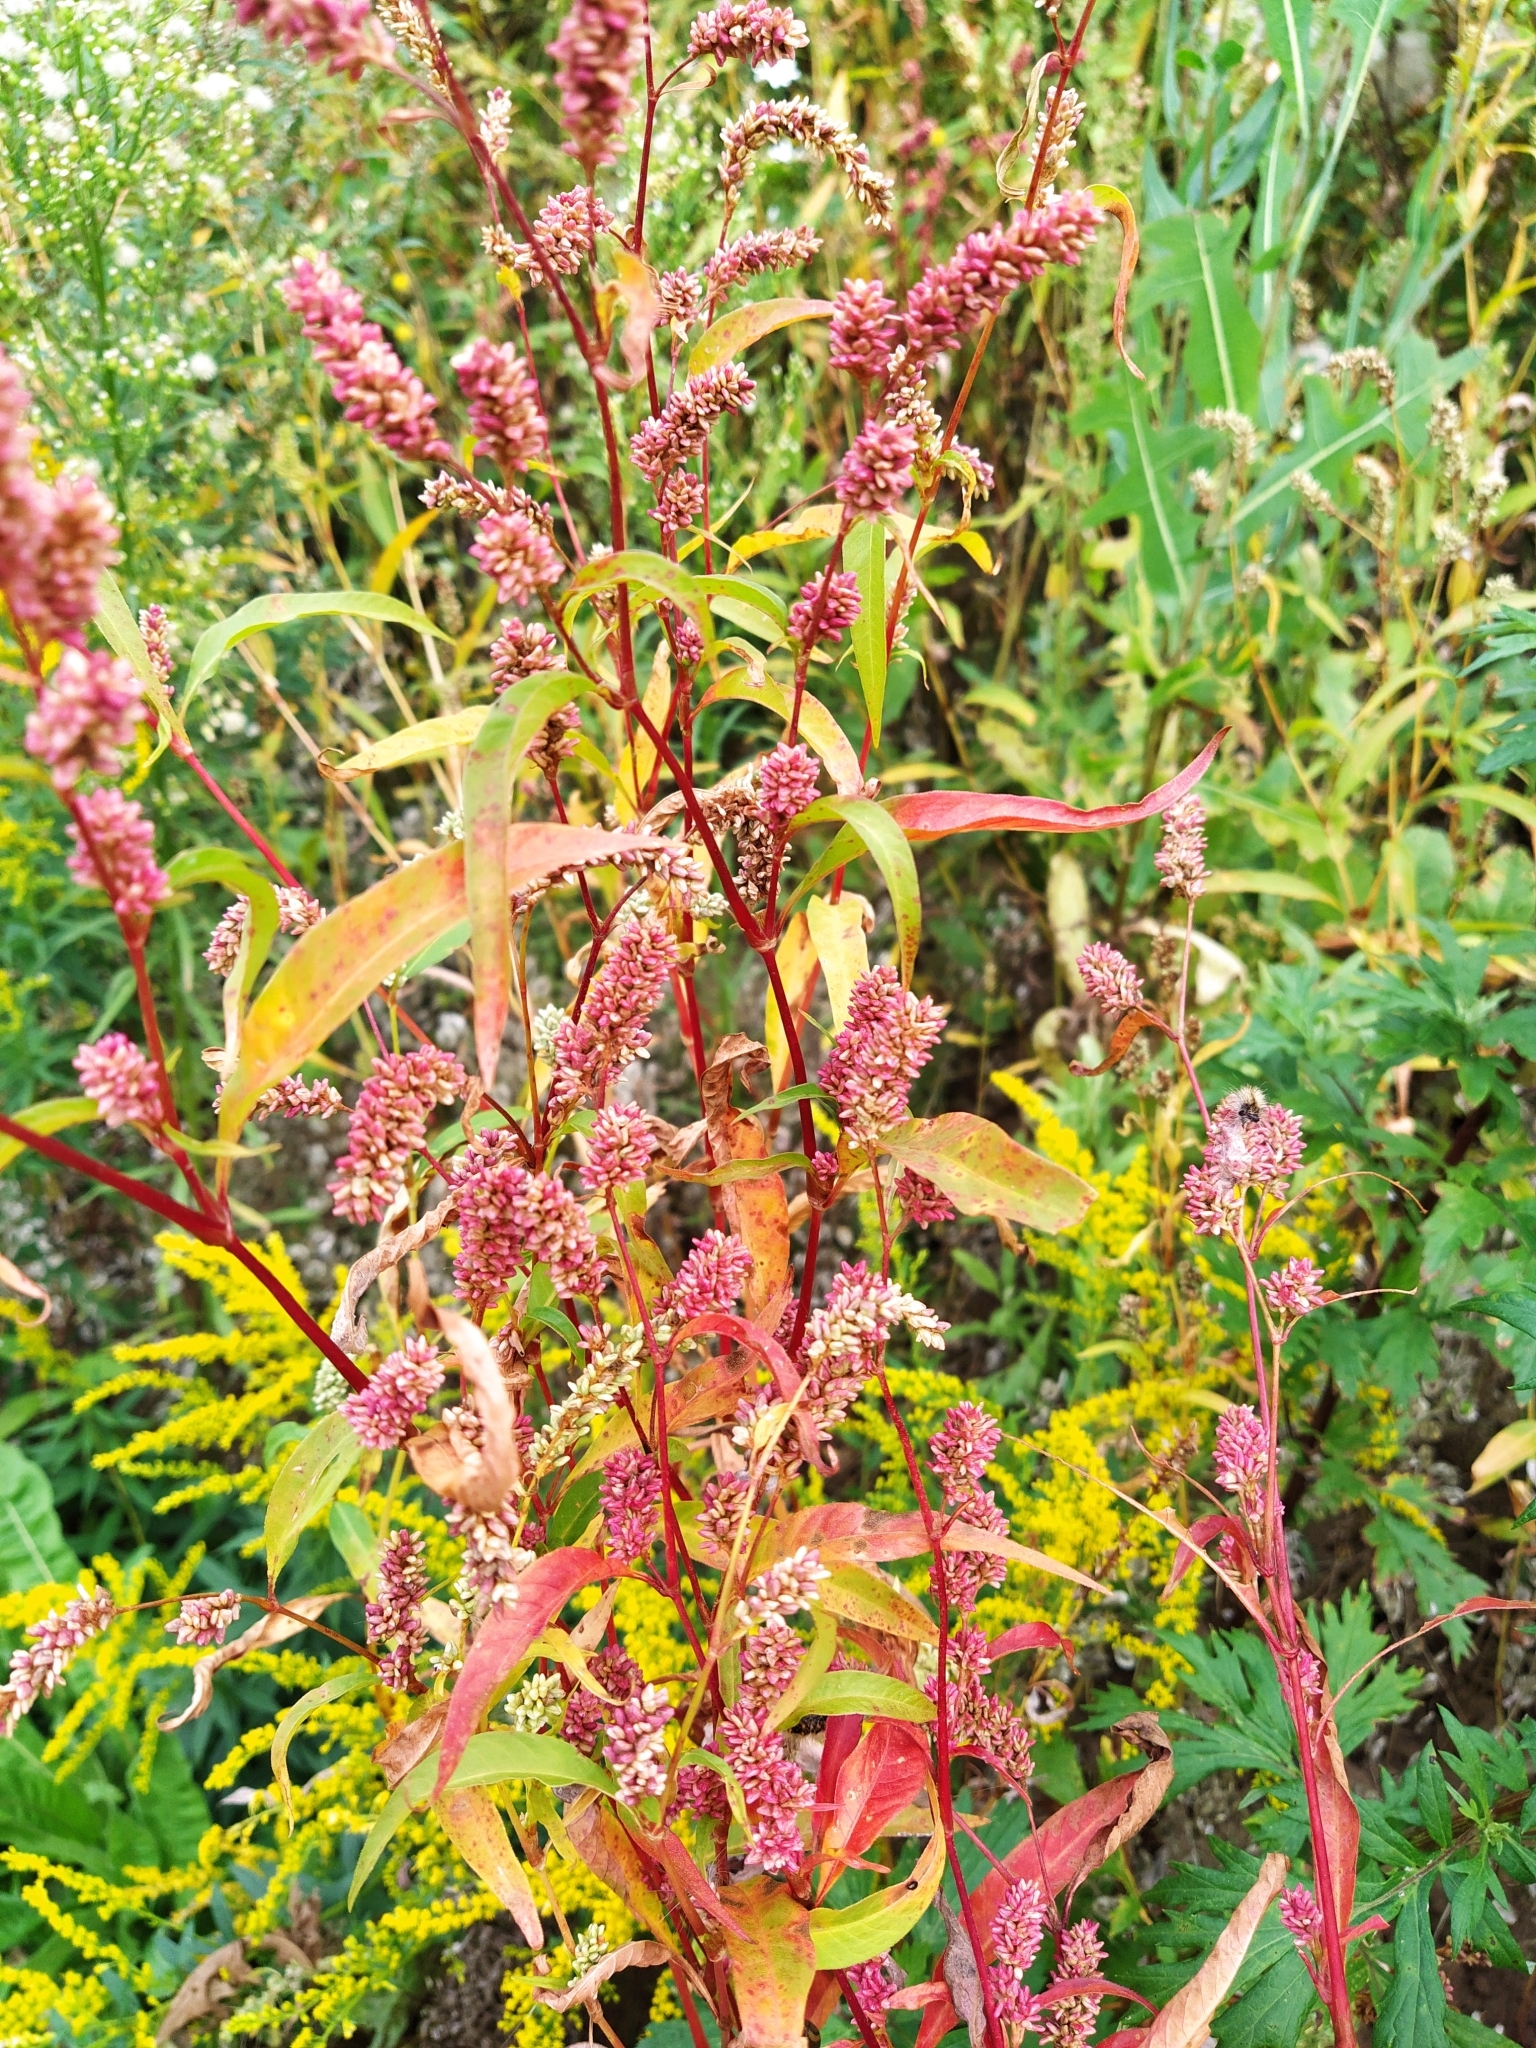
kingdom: Plantae
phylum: Tracheophyta
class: Magnoliopsida
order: Caryophyllales
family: Polygonaceae
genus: Persicaria
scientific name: Persicaria lapathifolia
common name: Curlytop knotweed
